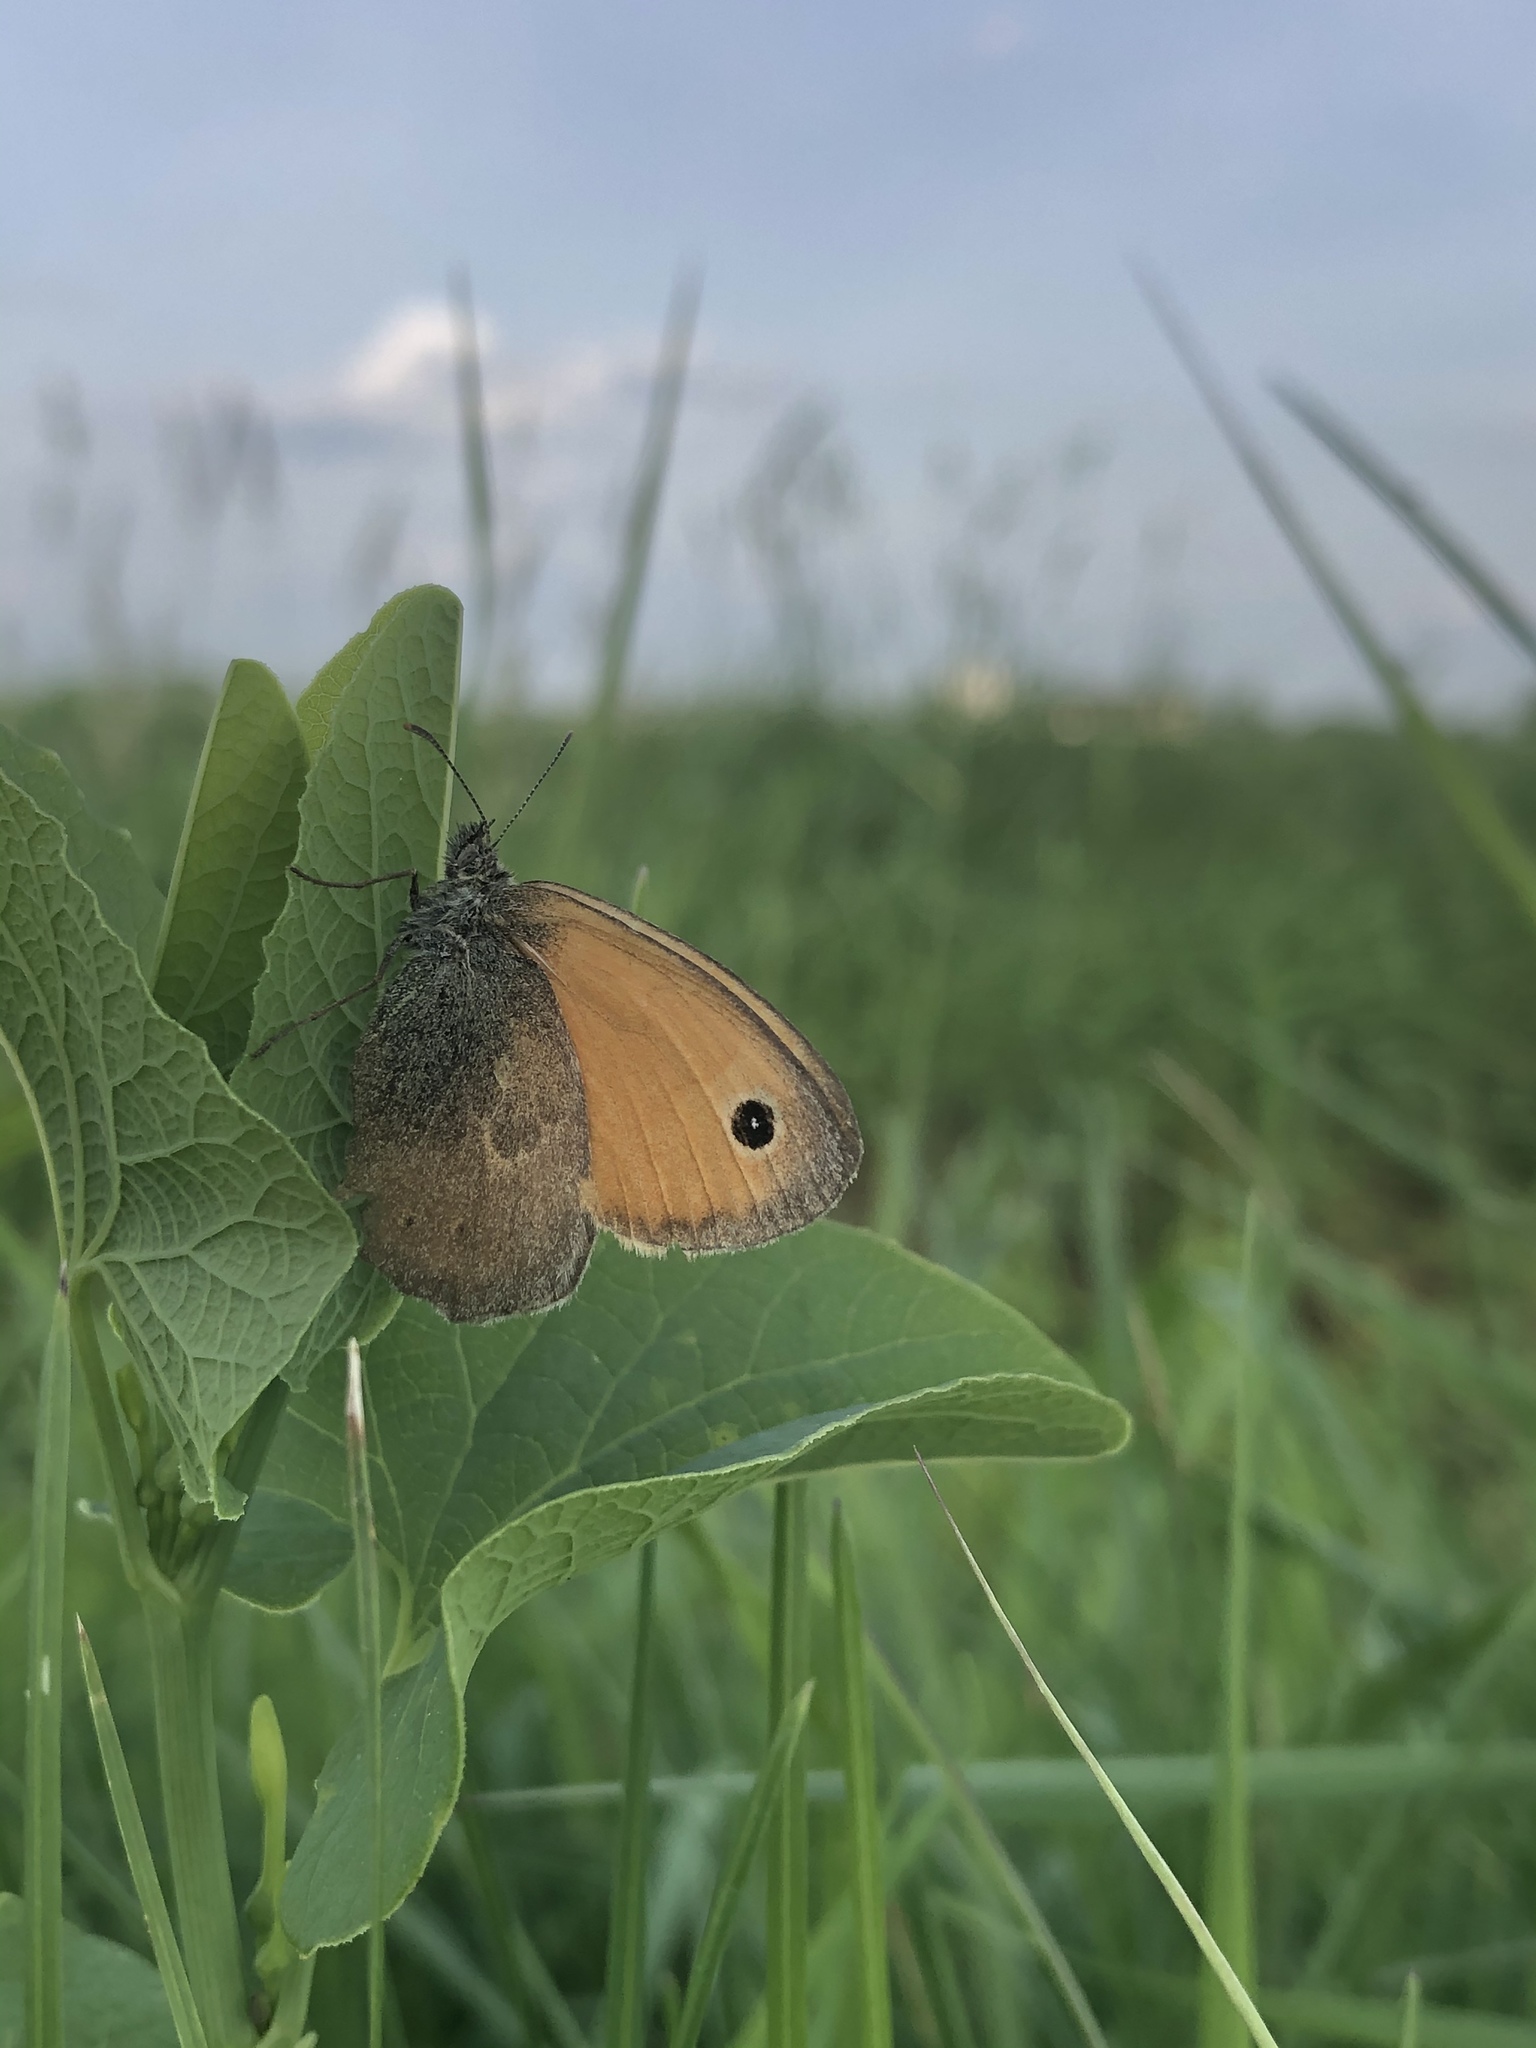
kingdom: Animalia
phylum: Arthropoda
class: Insecta
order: Lepidoptera
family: Nymphalidae
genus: Coenonympha
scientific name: Coenonympha pamphilus
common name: Small heath
